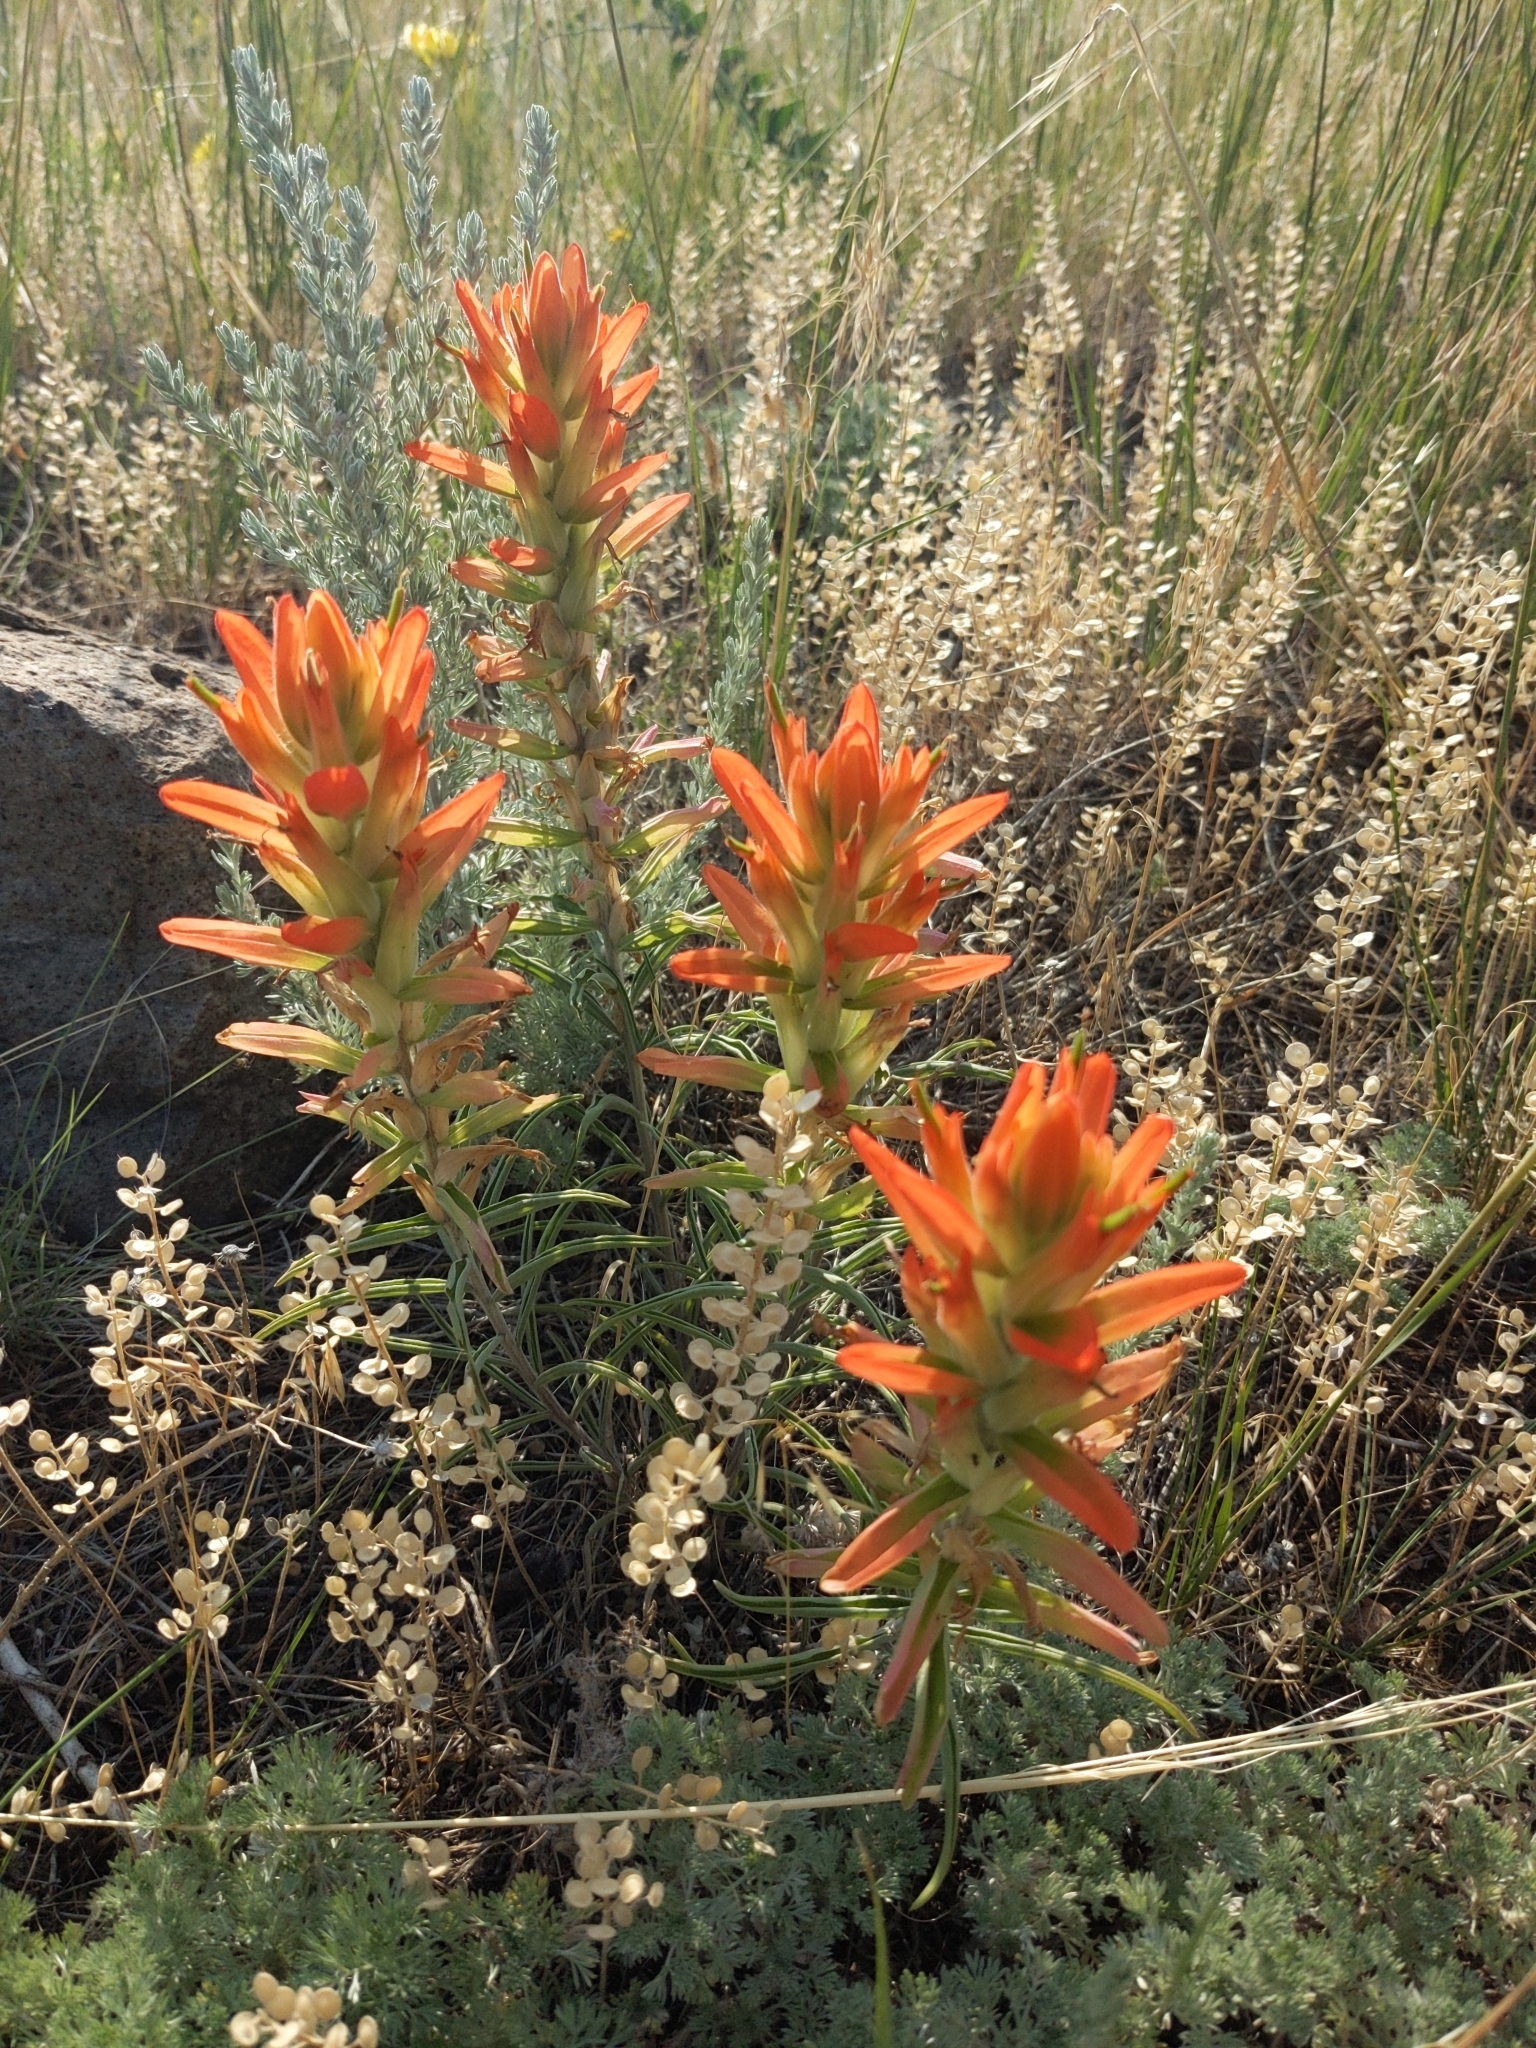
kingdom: Plantae
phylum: Tracheophyta
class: Magnoliopsida
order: Lamiales
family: Orobanchaceae
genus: Castilleja
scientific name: Castilleja integra
